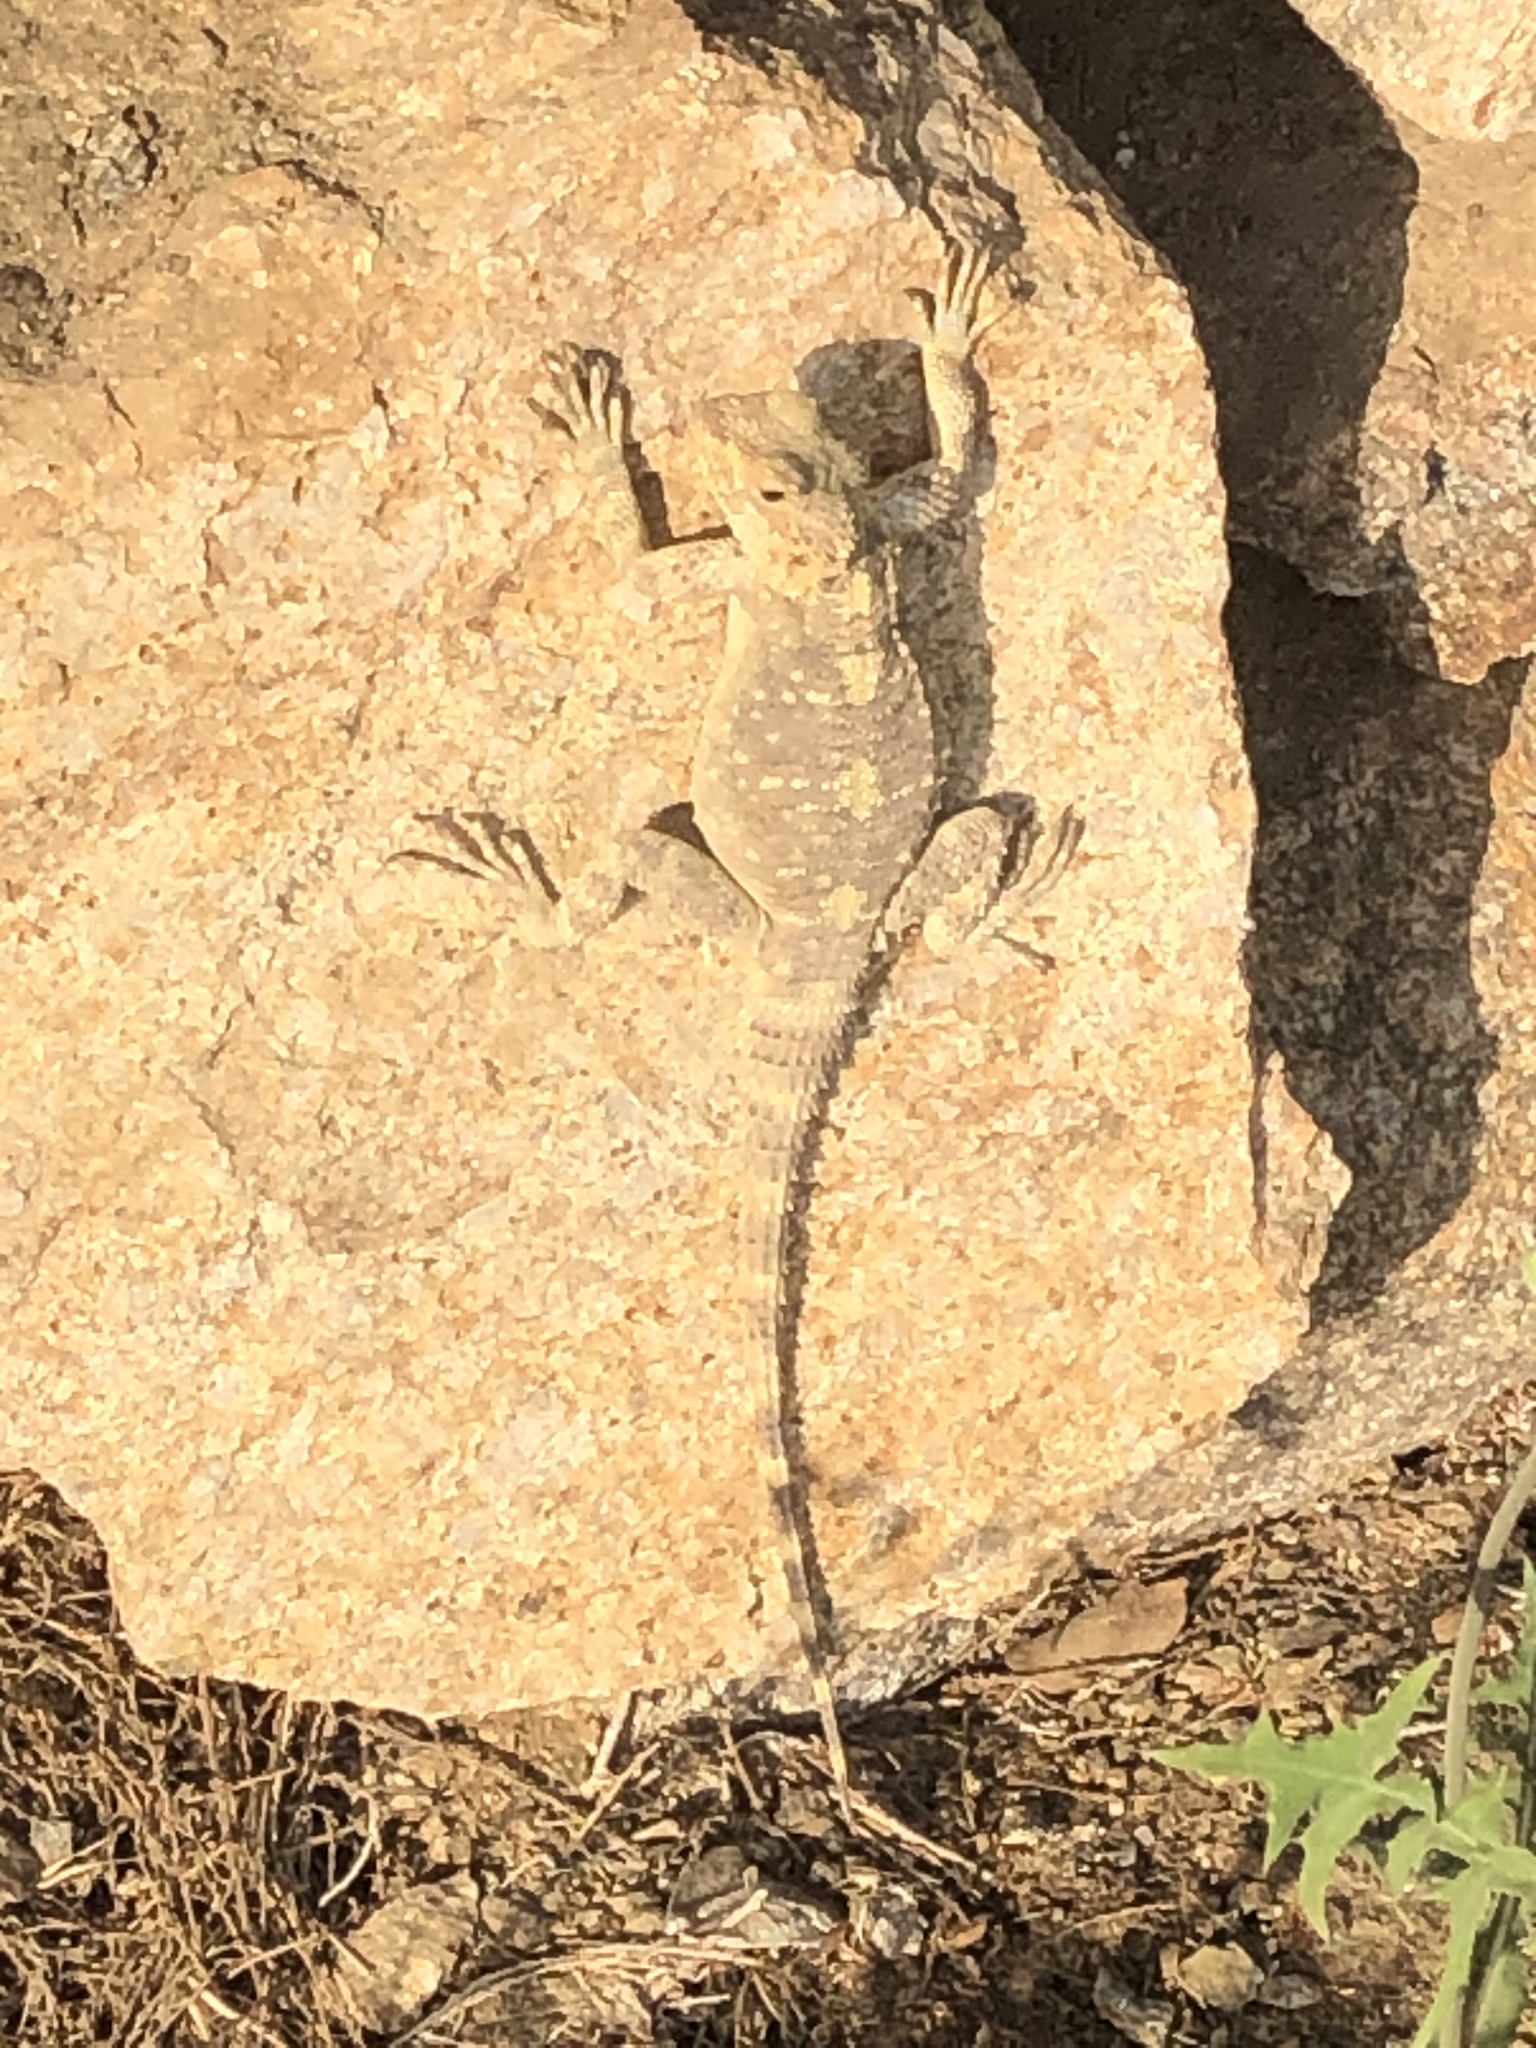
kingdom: Animalia
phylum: Chordata
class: Squamata
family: Agamidae
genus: Stellagama
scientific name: Stellagama stellio
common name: Starred agama
